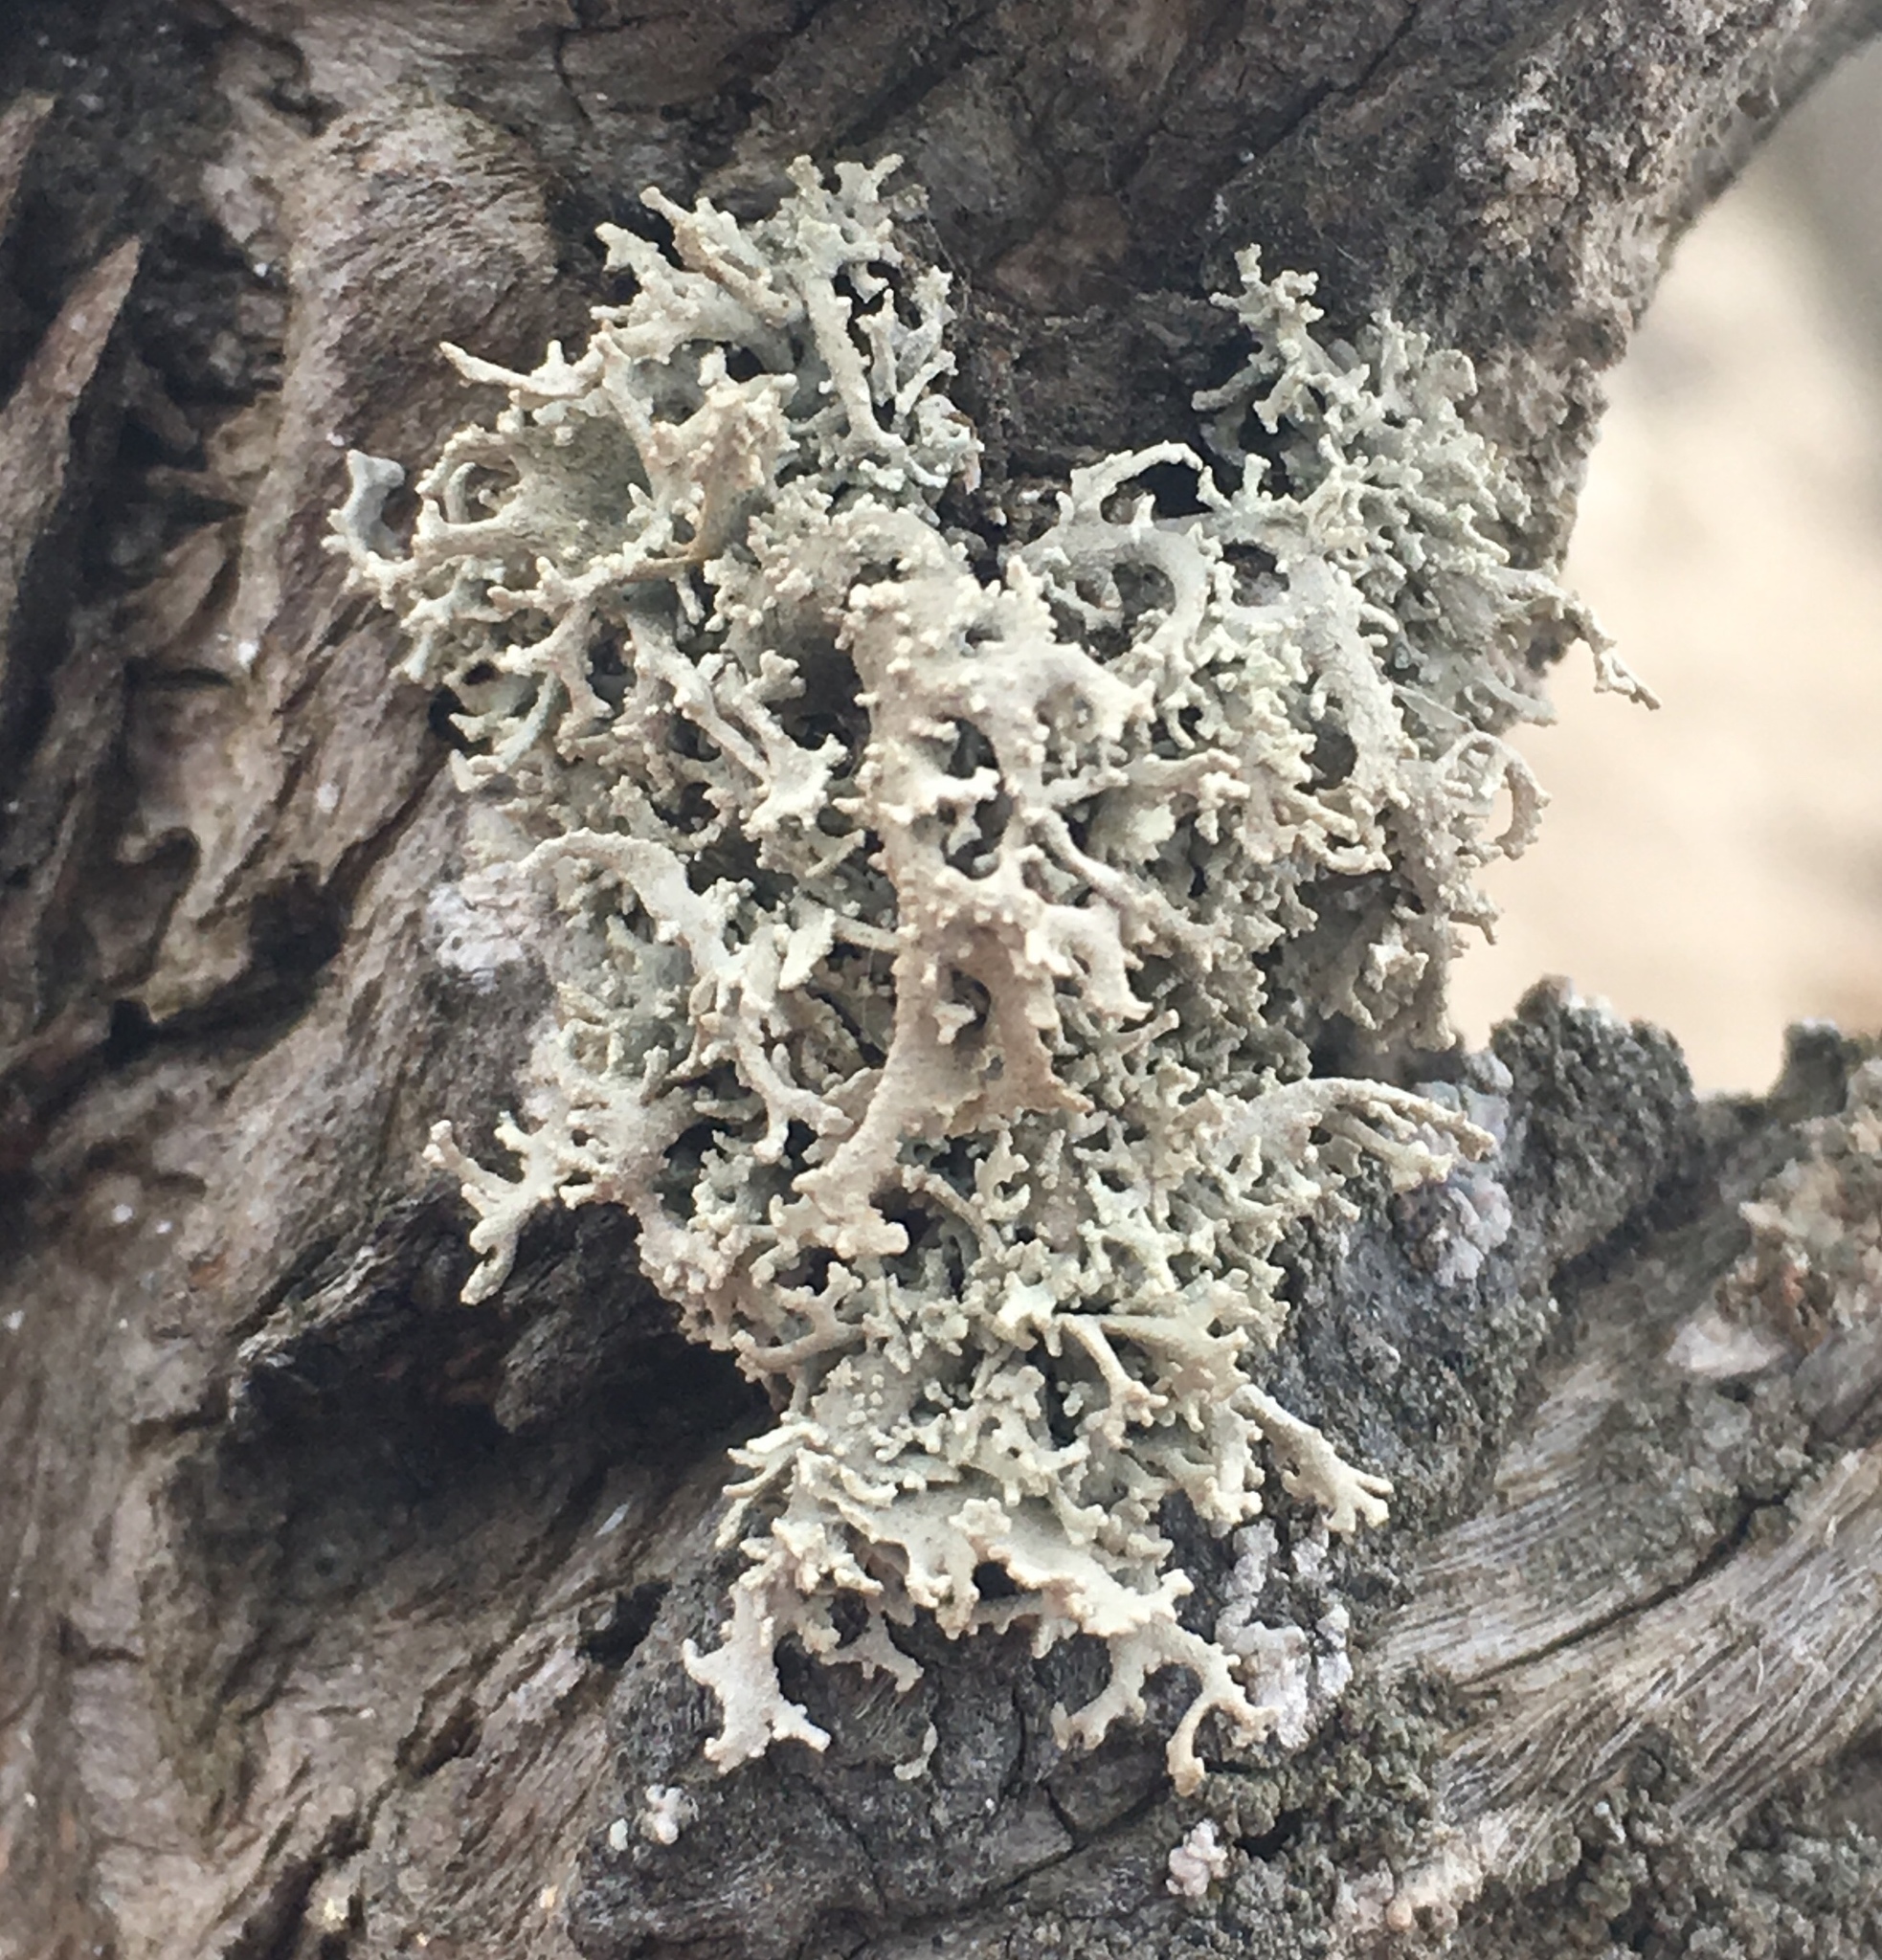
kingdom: Fungi
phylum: Ascomycota
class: Arthoniomycetes
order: Arthoniales
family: Roccellaceae
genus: Dendrographa
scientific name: Dendrographa leucophaea
